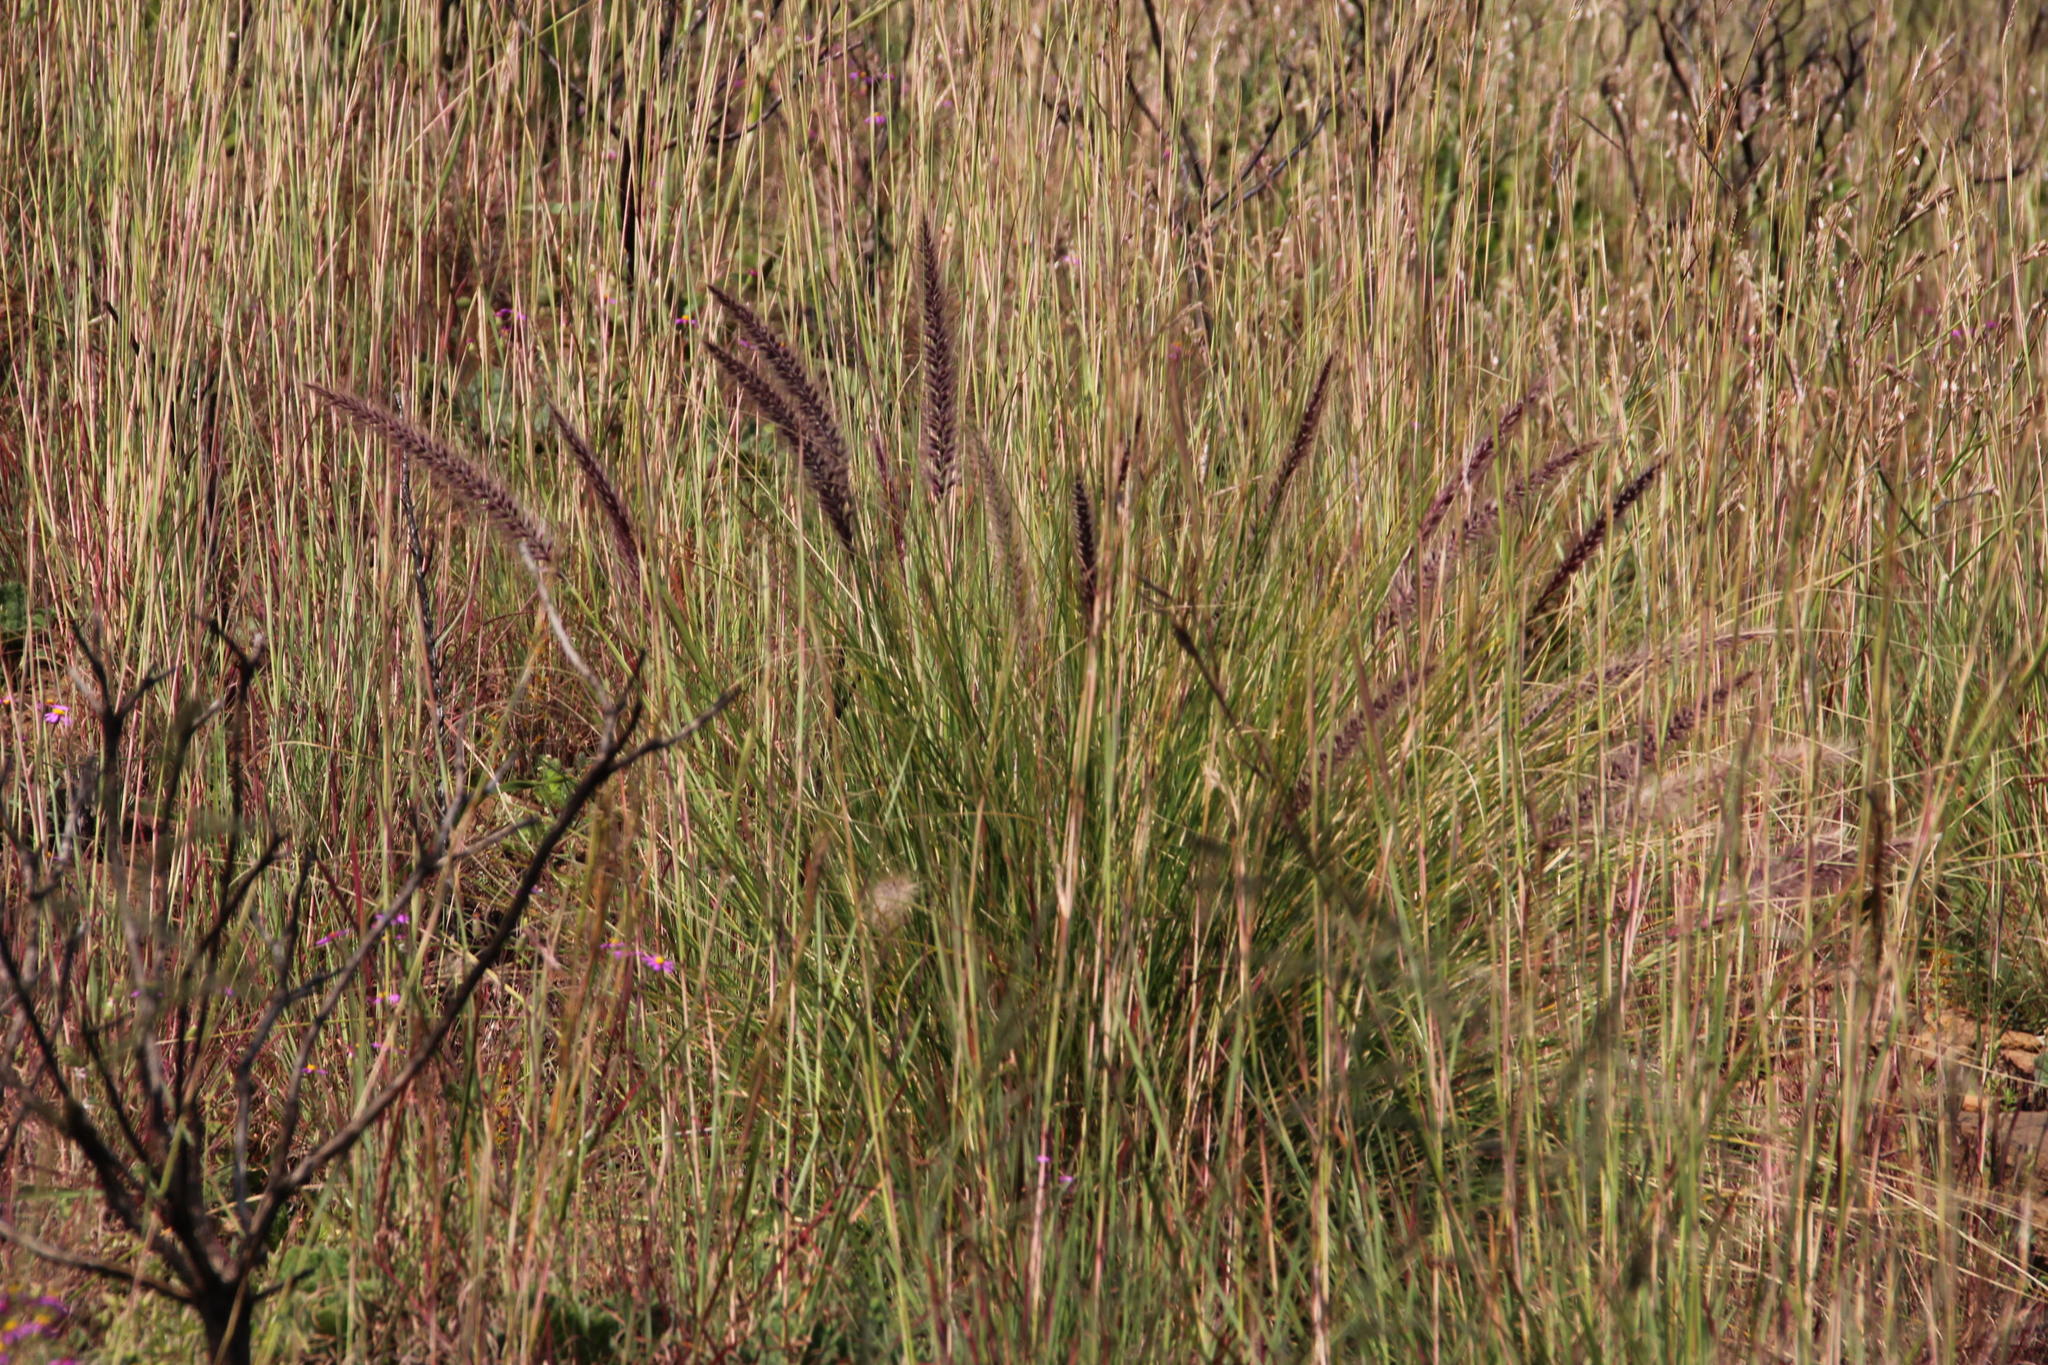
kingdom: Plantae
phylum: Tracheophyta
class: Liliopsida
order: Poales
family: Poaceae
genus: Cenchrus
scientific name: Cenchrus setaceus
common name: Crimson fountaingrass
